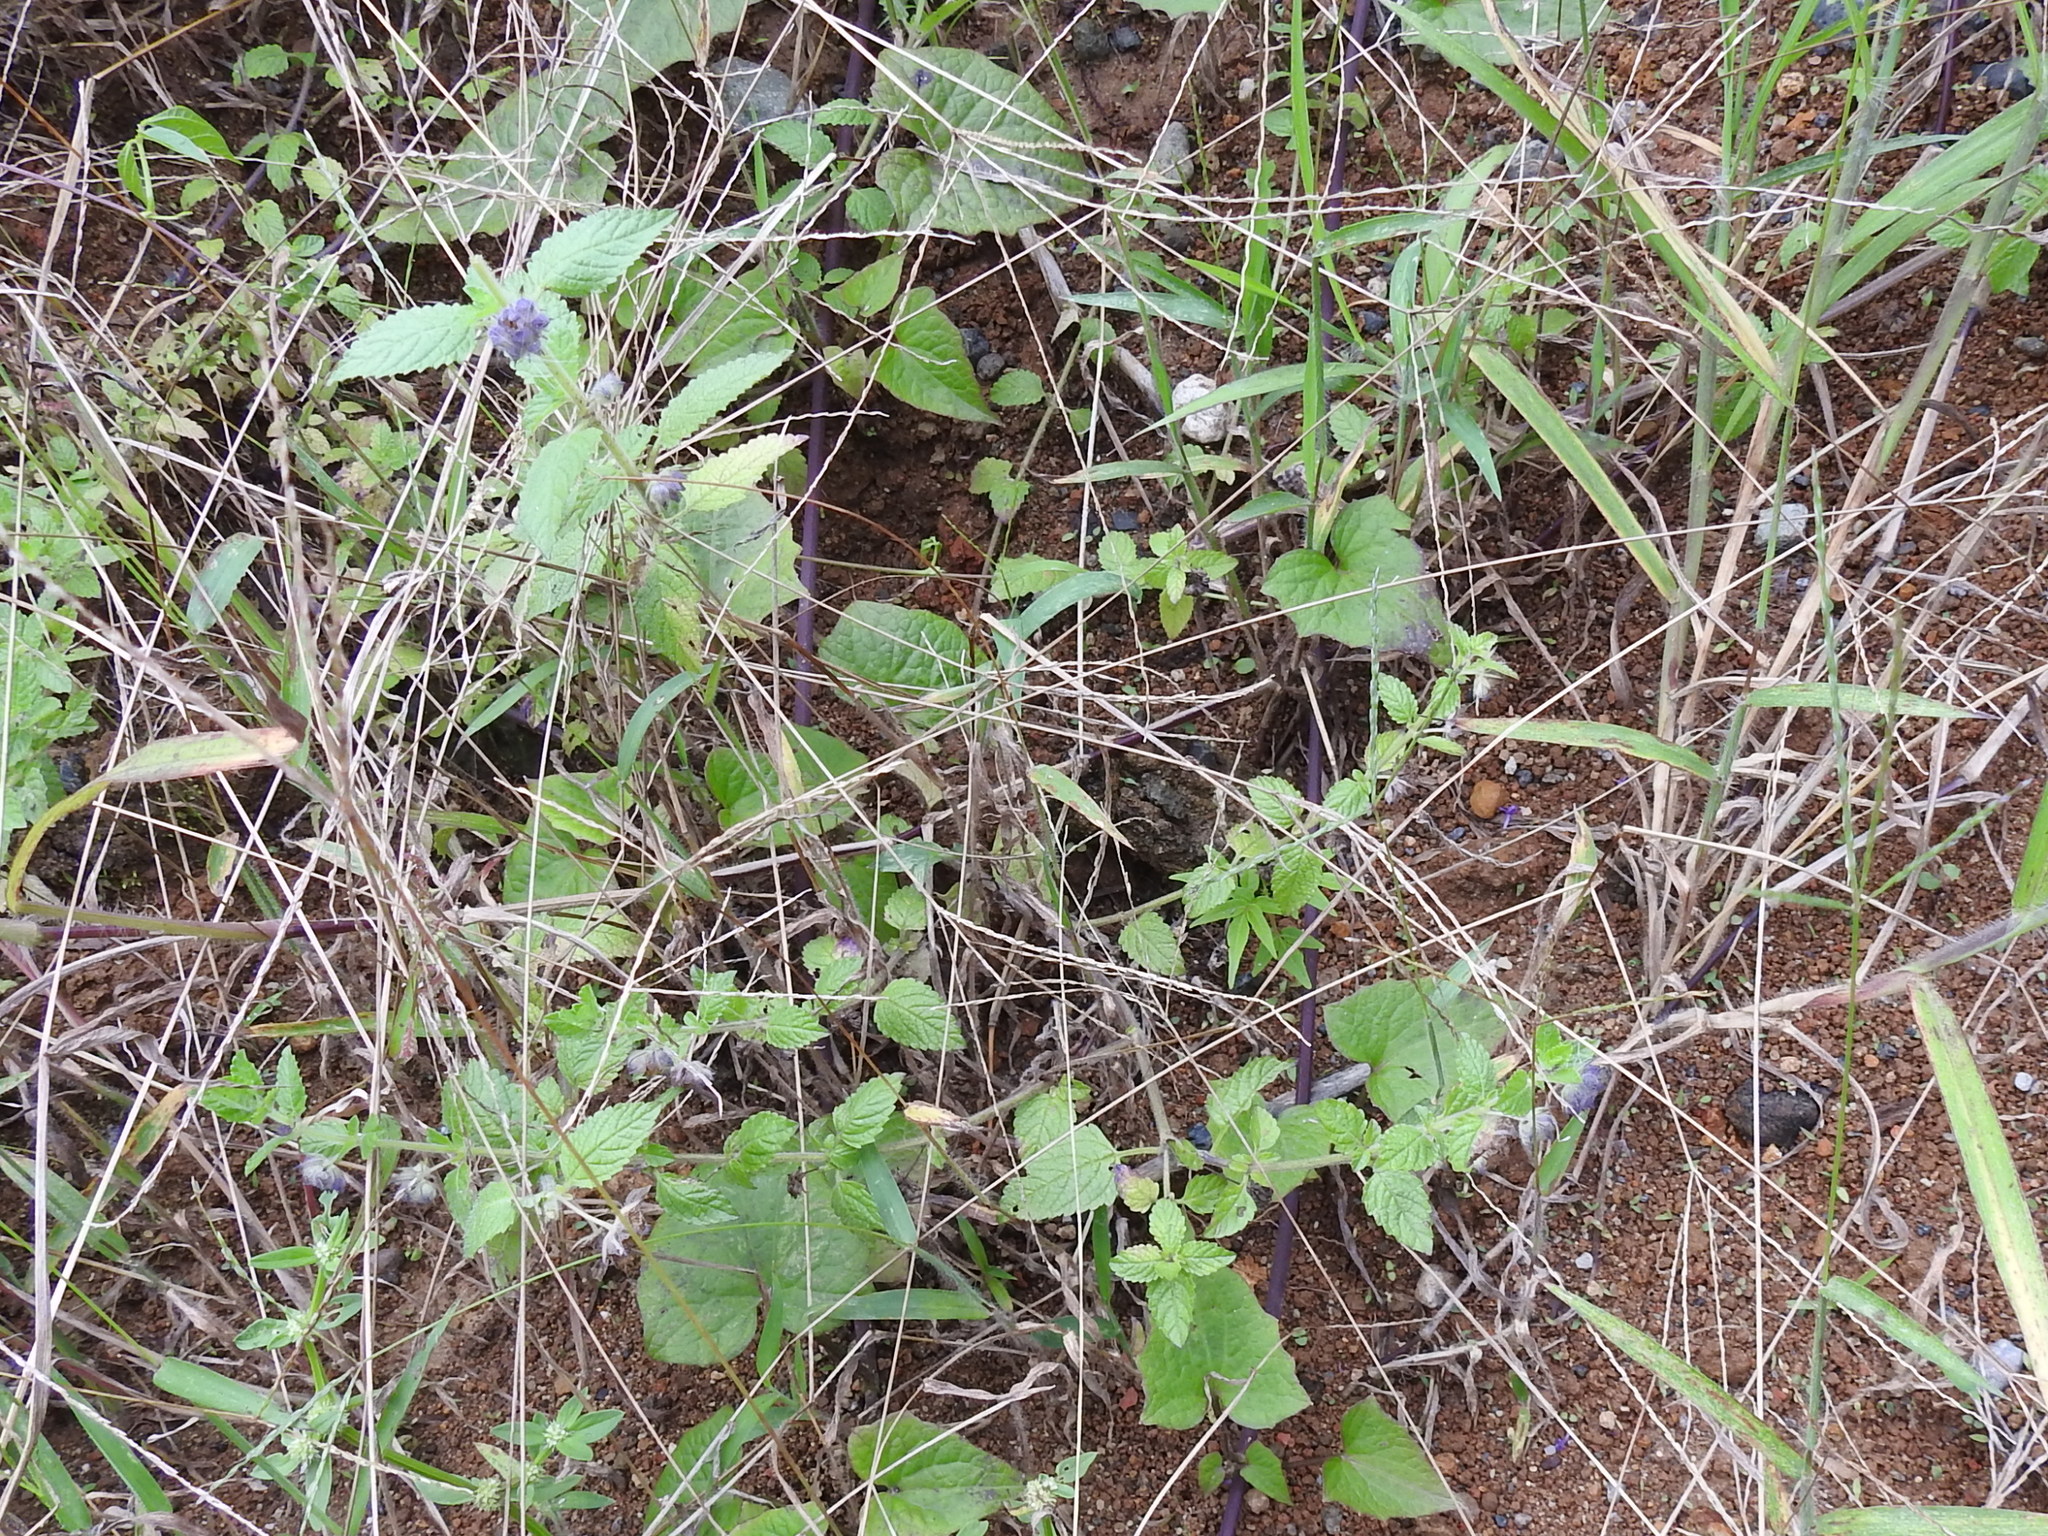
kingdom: Plantae
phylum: Tracheophyta
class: Magnoliopsida
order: Lamiales
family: Lamiaceae
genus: Marsypianthes
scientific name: Marsypianthes chamaedrys
